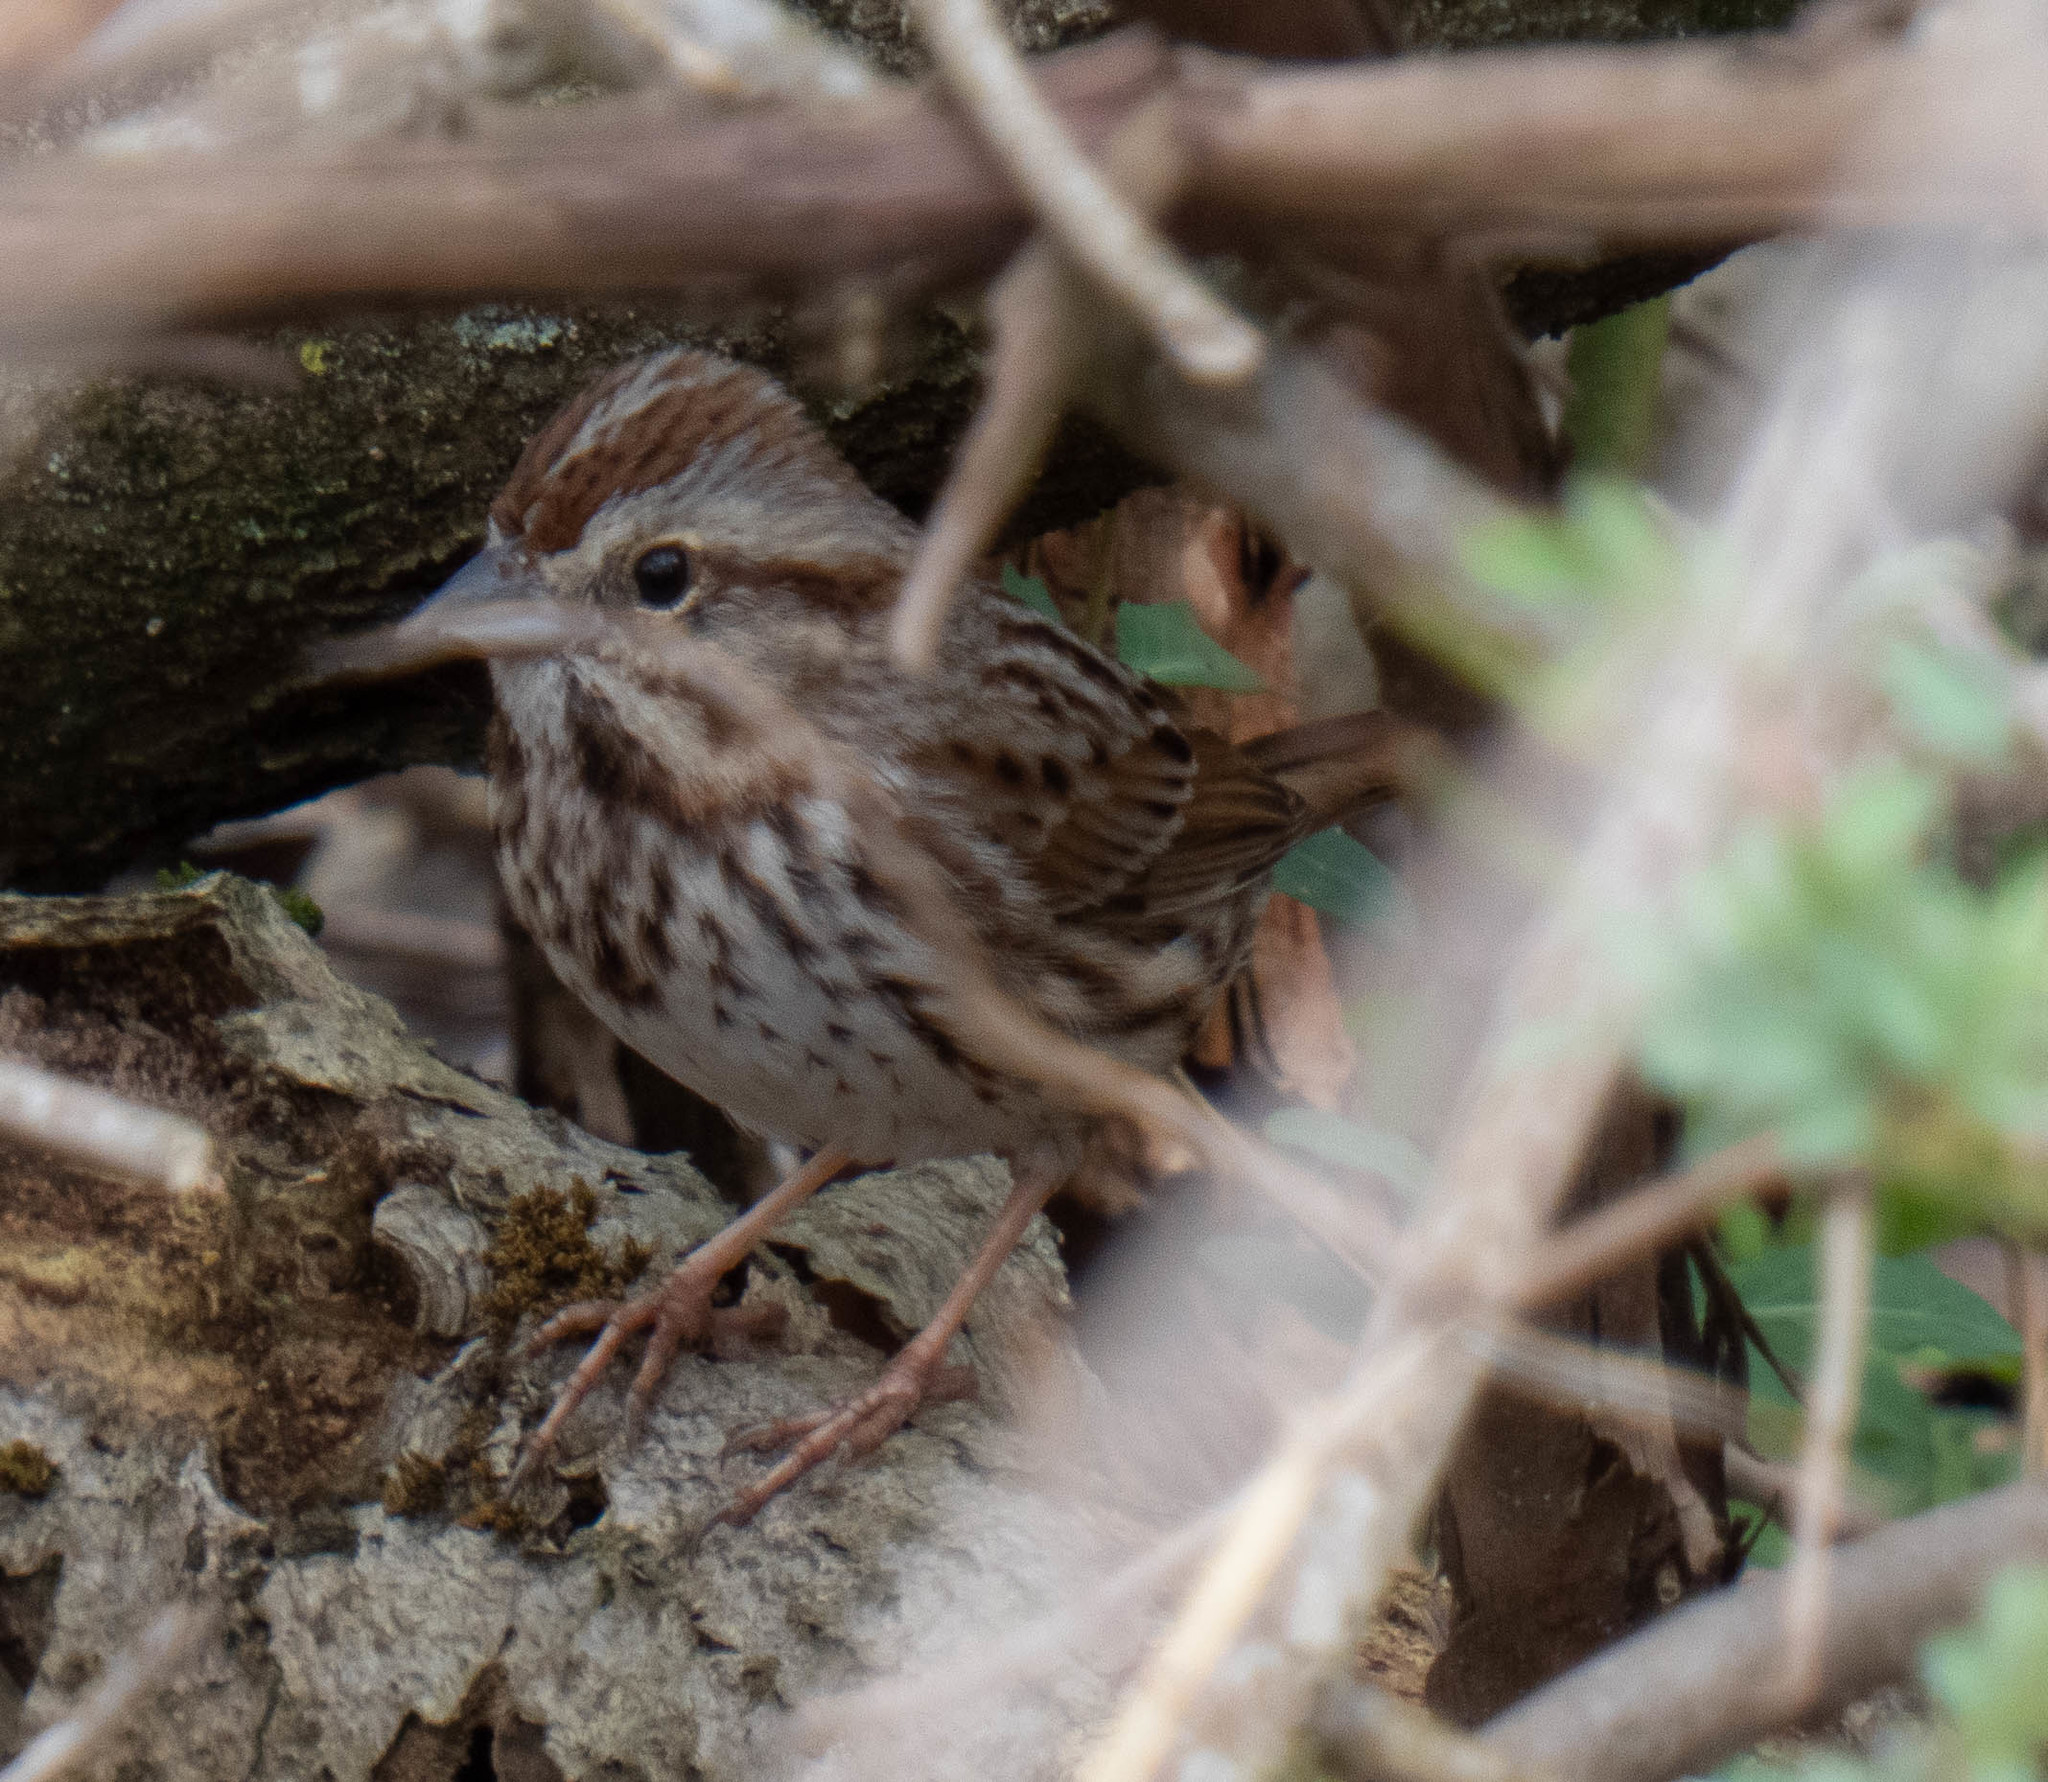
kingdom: Animalia
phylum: Chordata
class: Aves
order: Passeriformes
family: Passerellidae
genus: Melospiza
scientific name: Melospiza melodia
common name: Song sparrow
